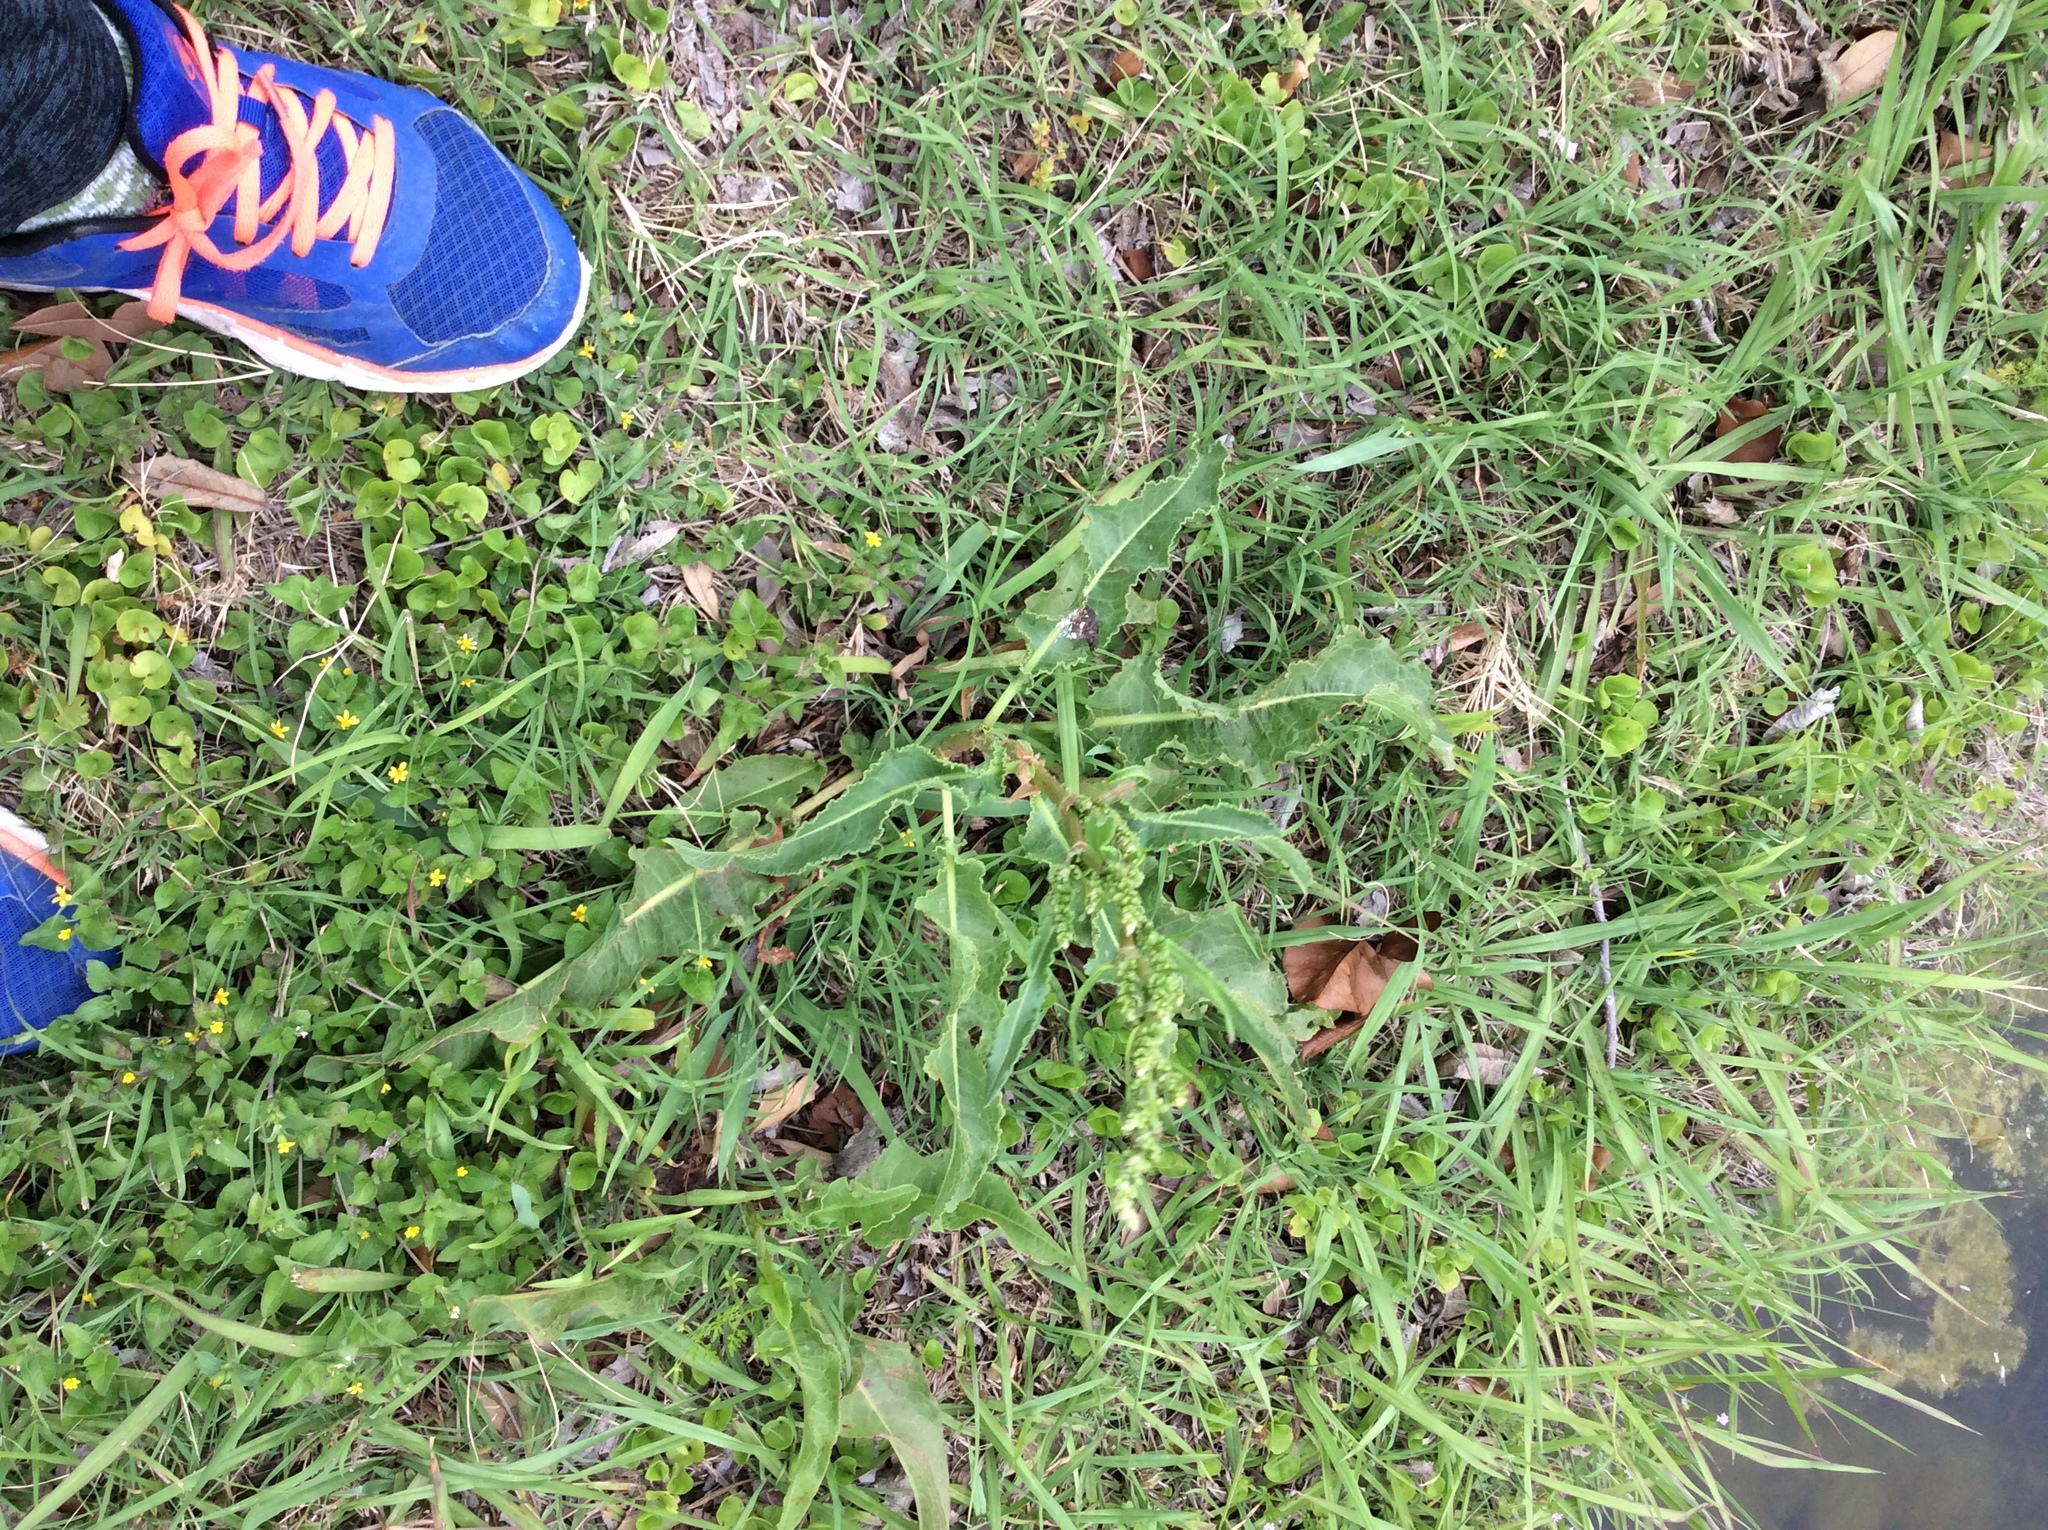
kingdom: Plantae
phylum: Tracheophyta
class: Magnoliopsida
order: Caryophyllales
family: Polygonaceae
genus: Rumex
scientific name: Rumex crispus
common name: Curled dock
